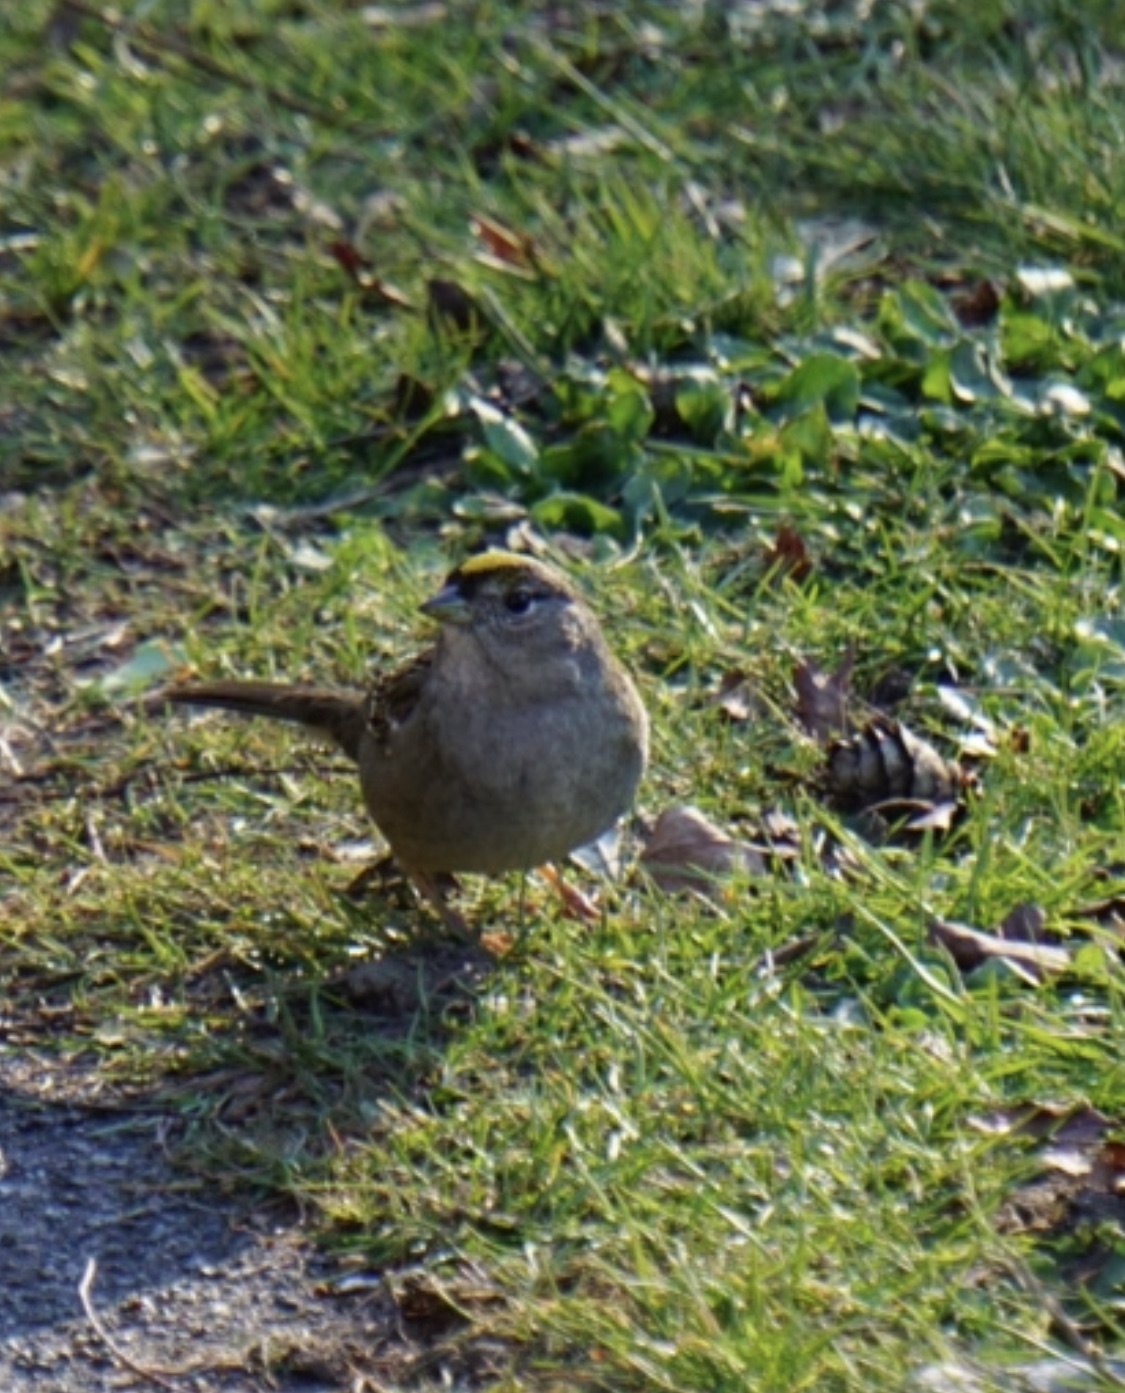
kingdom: Animalia
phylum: Chordata
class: Aves
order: Passeriformes
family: Passerellidae
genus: Zonotrichia
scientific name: Zonotrichia atricapilla
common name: Golden-crowned sparrow
